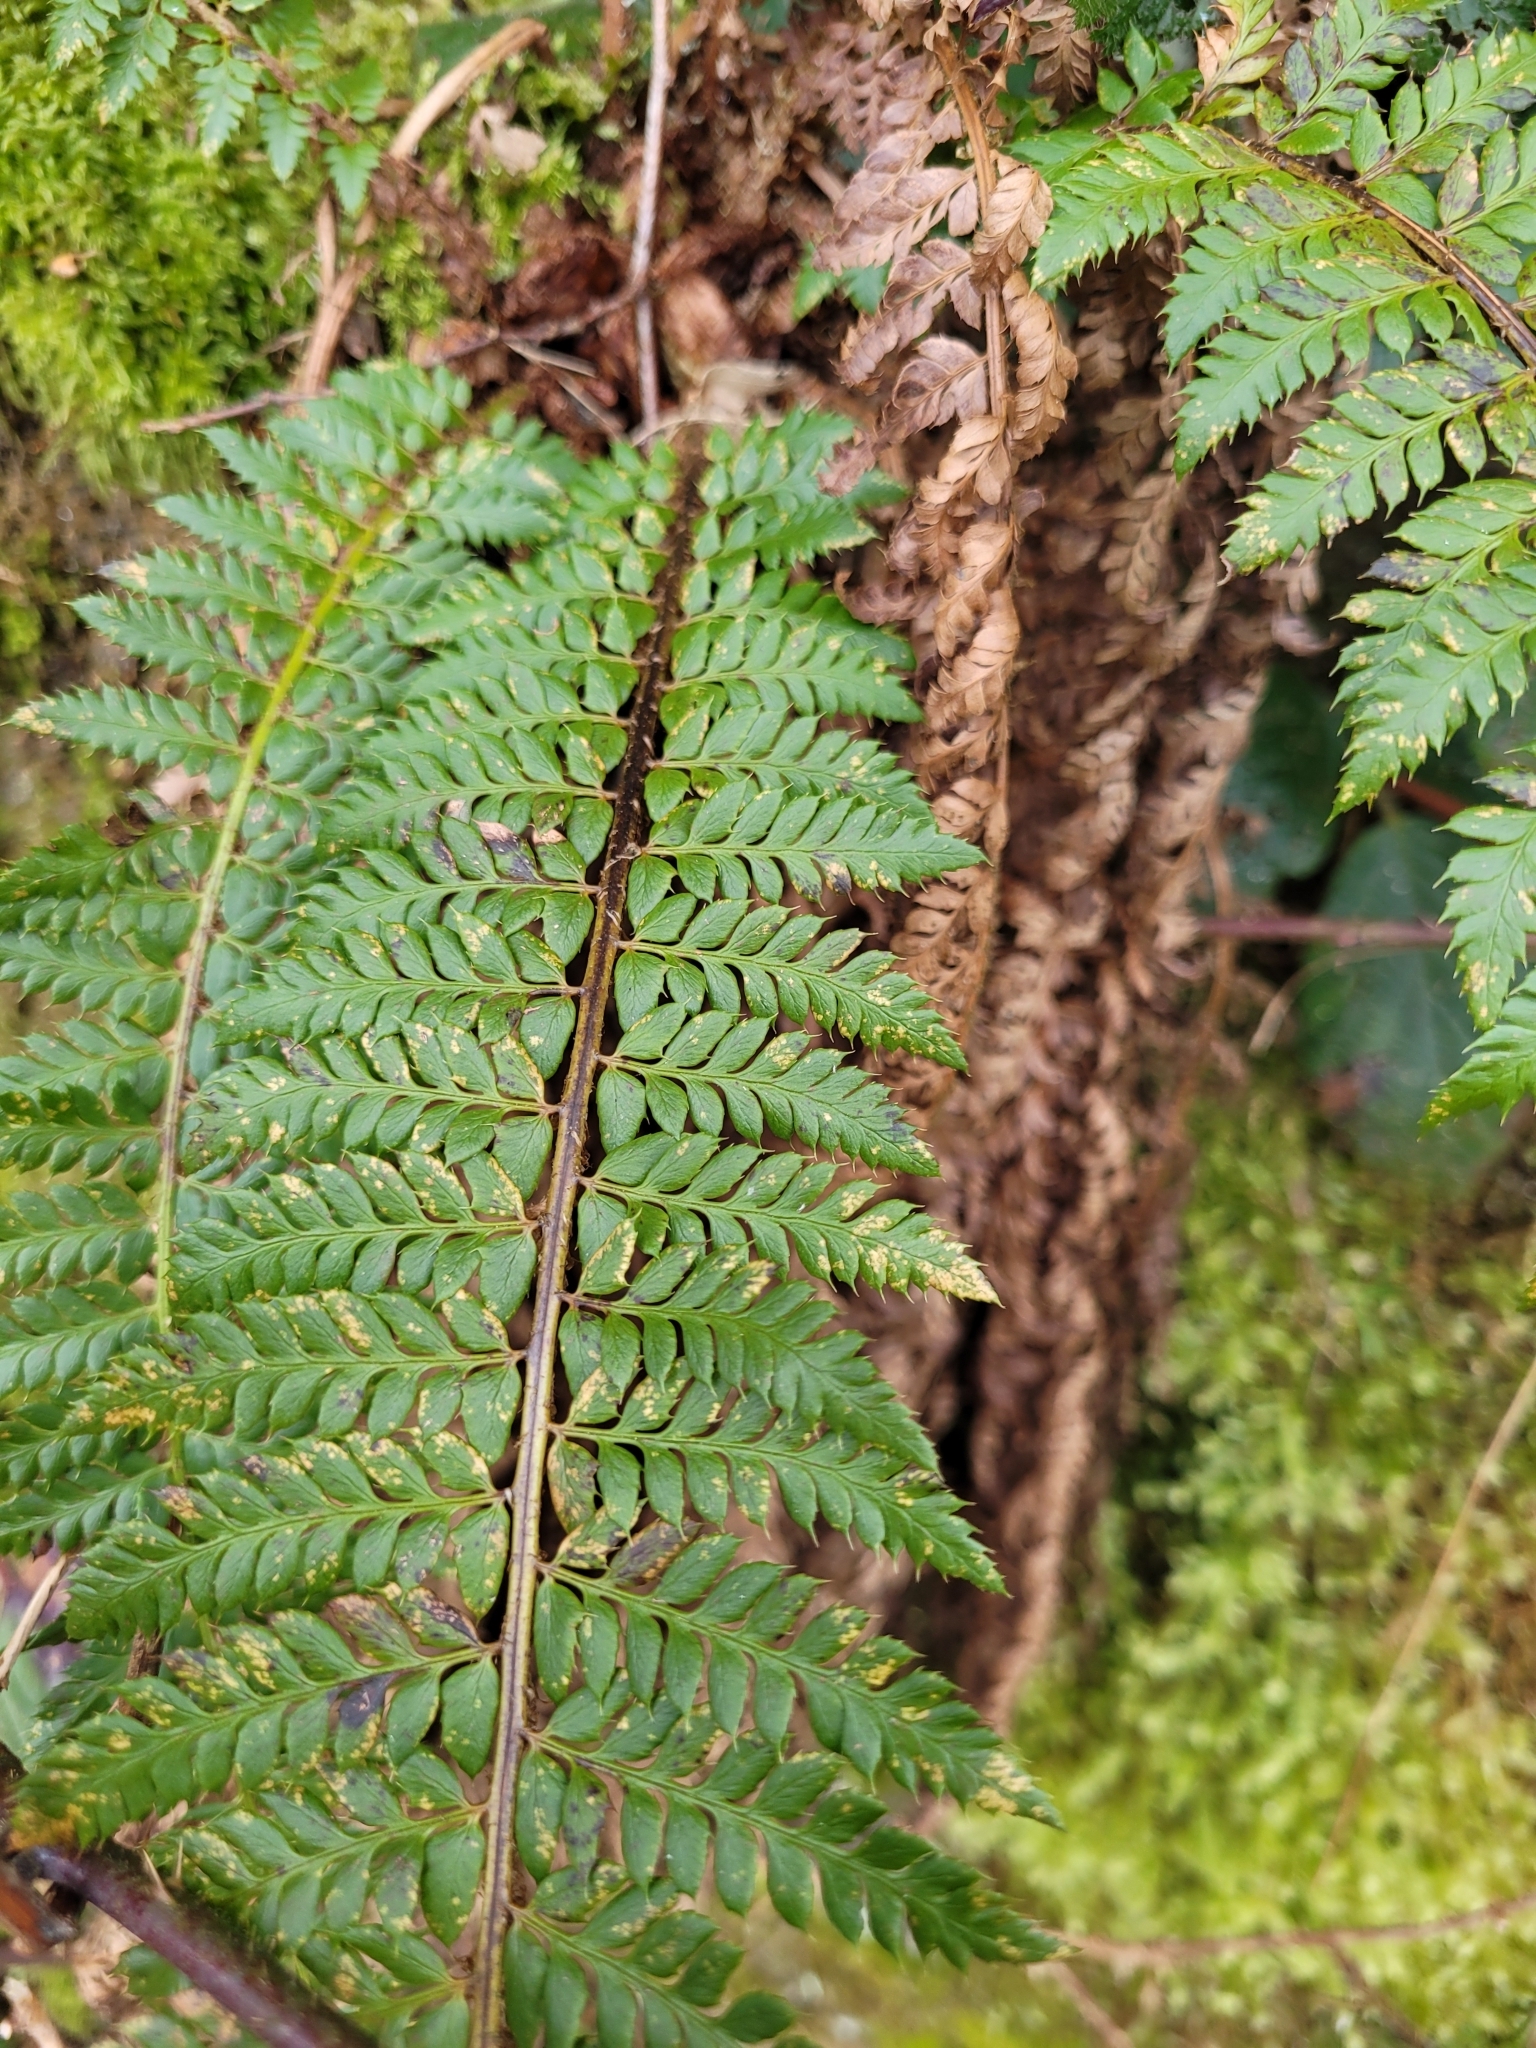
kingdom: Plantae
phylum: Tracheophyta
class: Polypodiopsida
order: Polypodiales
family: Dryopteridaceae
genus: Polystichum
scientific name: Polystichum aculeatum
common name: Hard shield-fern
